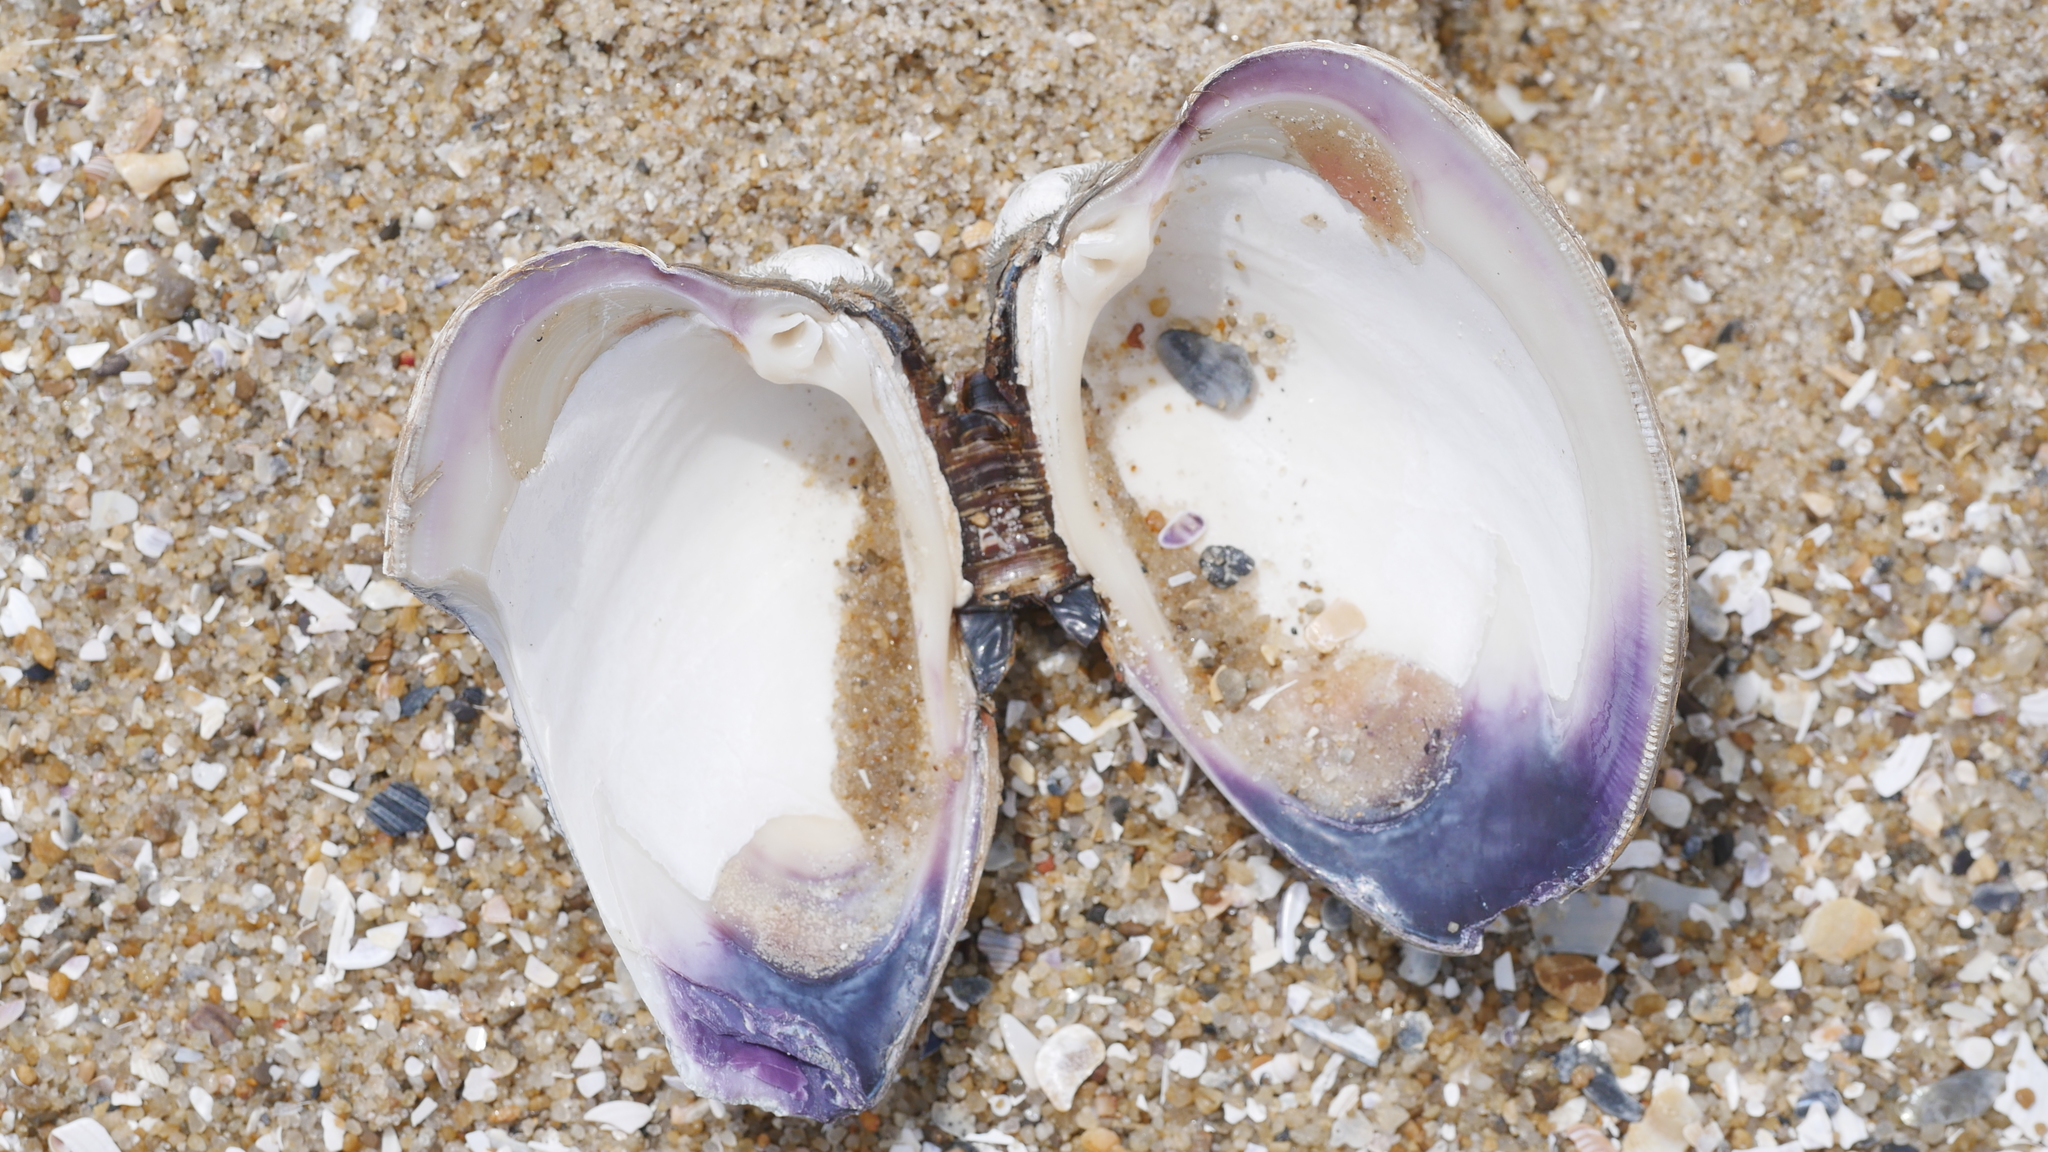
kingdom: Animalia
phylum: Mollusca
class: Bivalvia
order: Venerida
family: Veneridae
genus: Mercenaria
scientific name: Mercenaria mercenaria
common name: American hard-shelled clam
